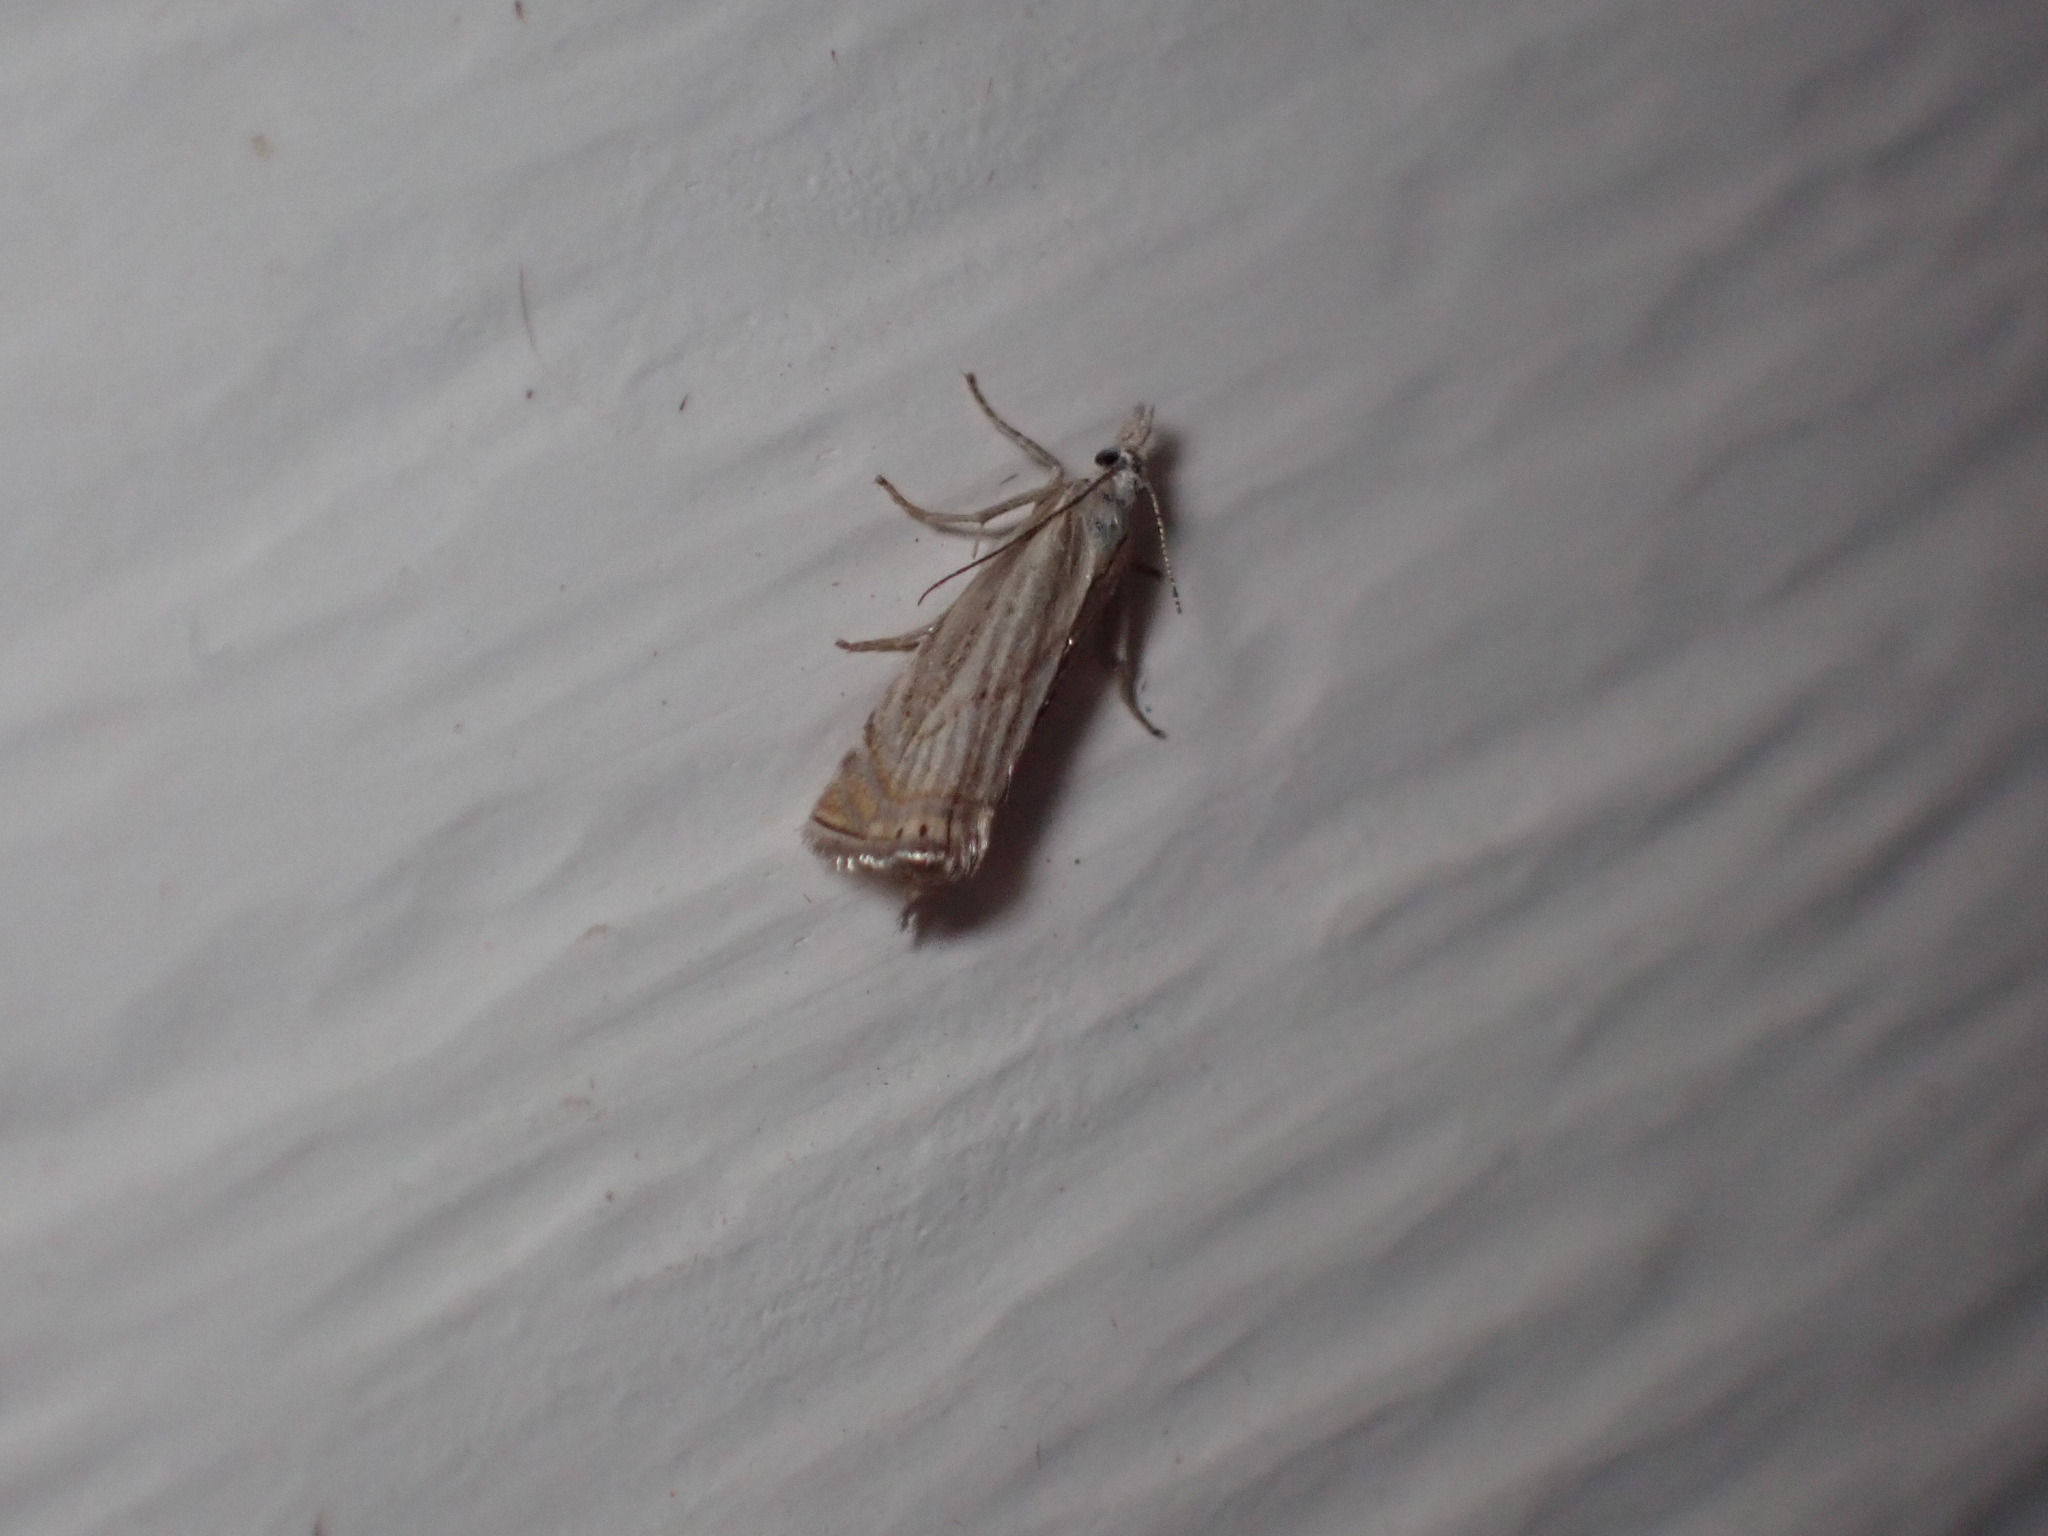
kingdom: Animalia
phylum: Arthropoda
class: Insecta
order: Lepidoptera
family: Crambidae
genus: Chrysoteuchia
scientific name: Chrysoteuchia topiarius
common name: Topiary grass-veneer
